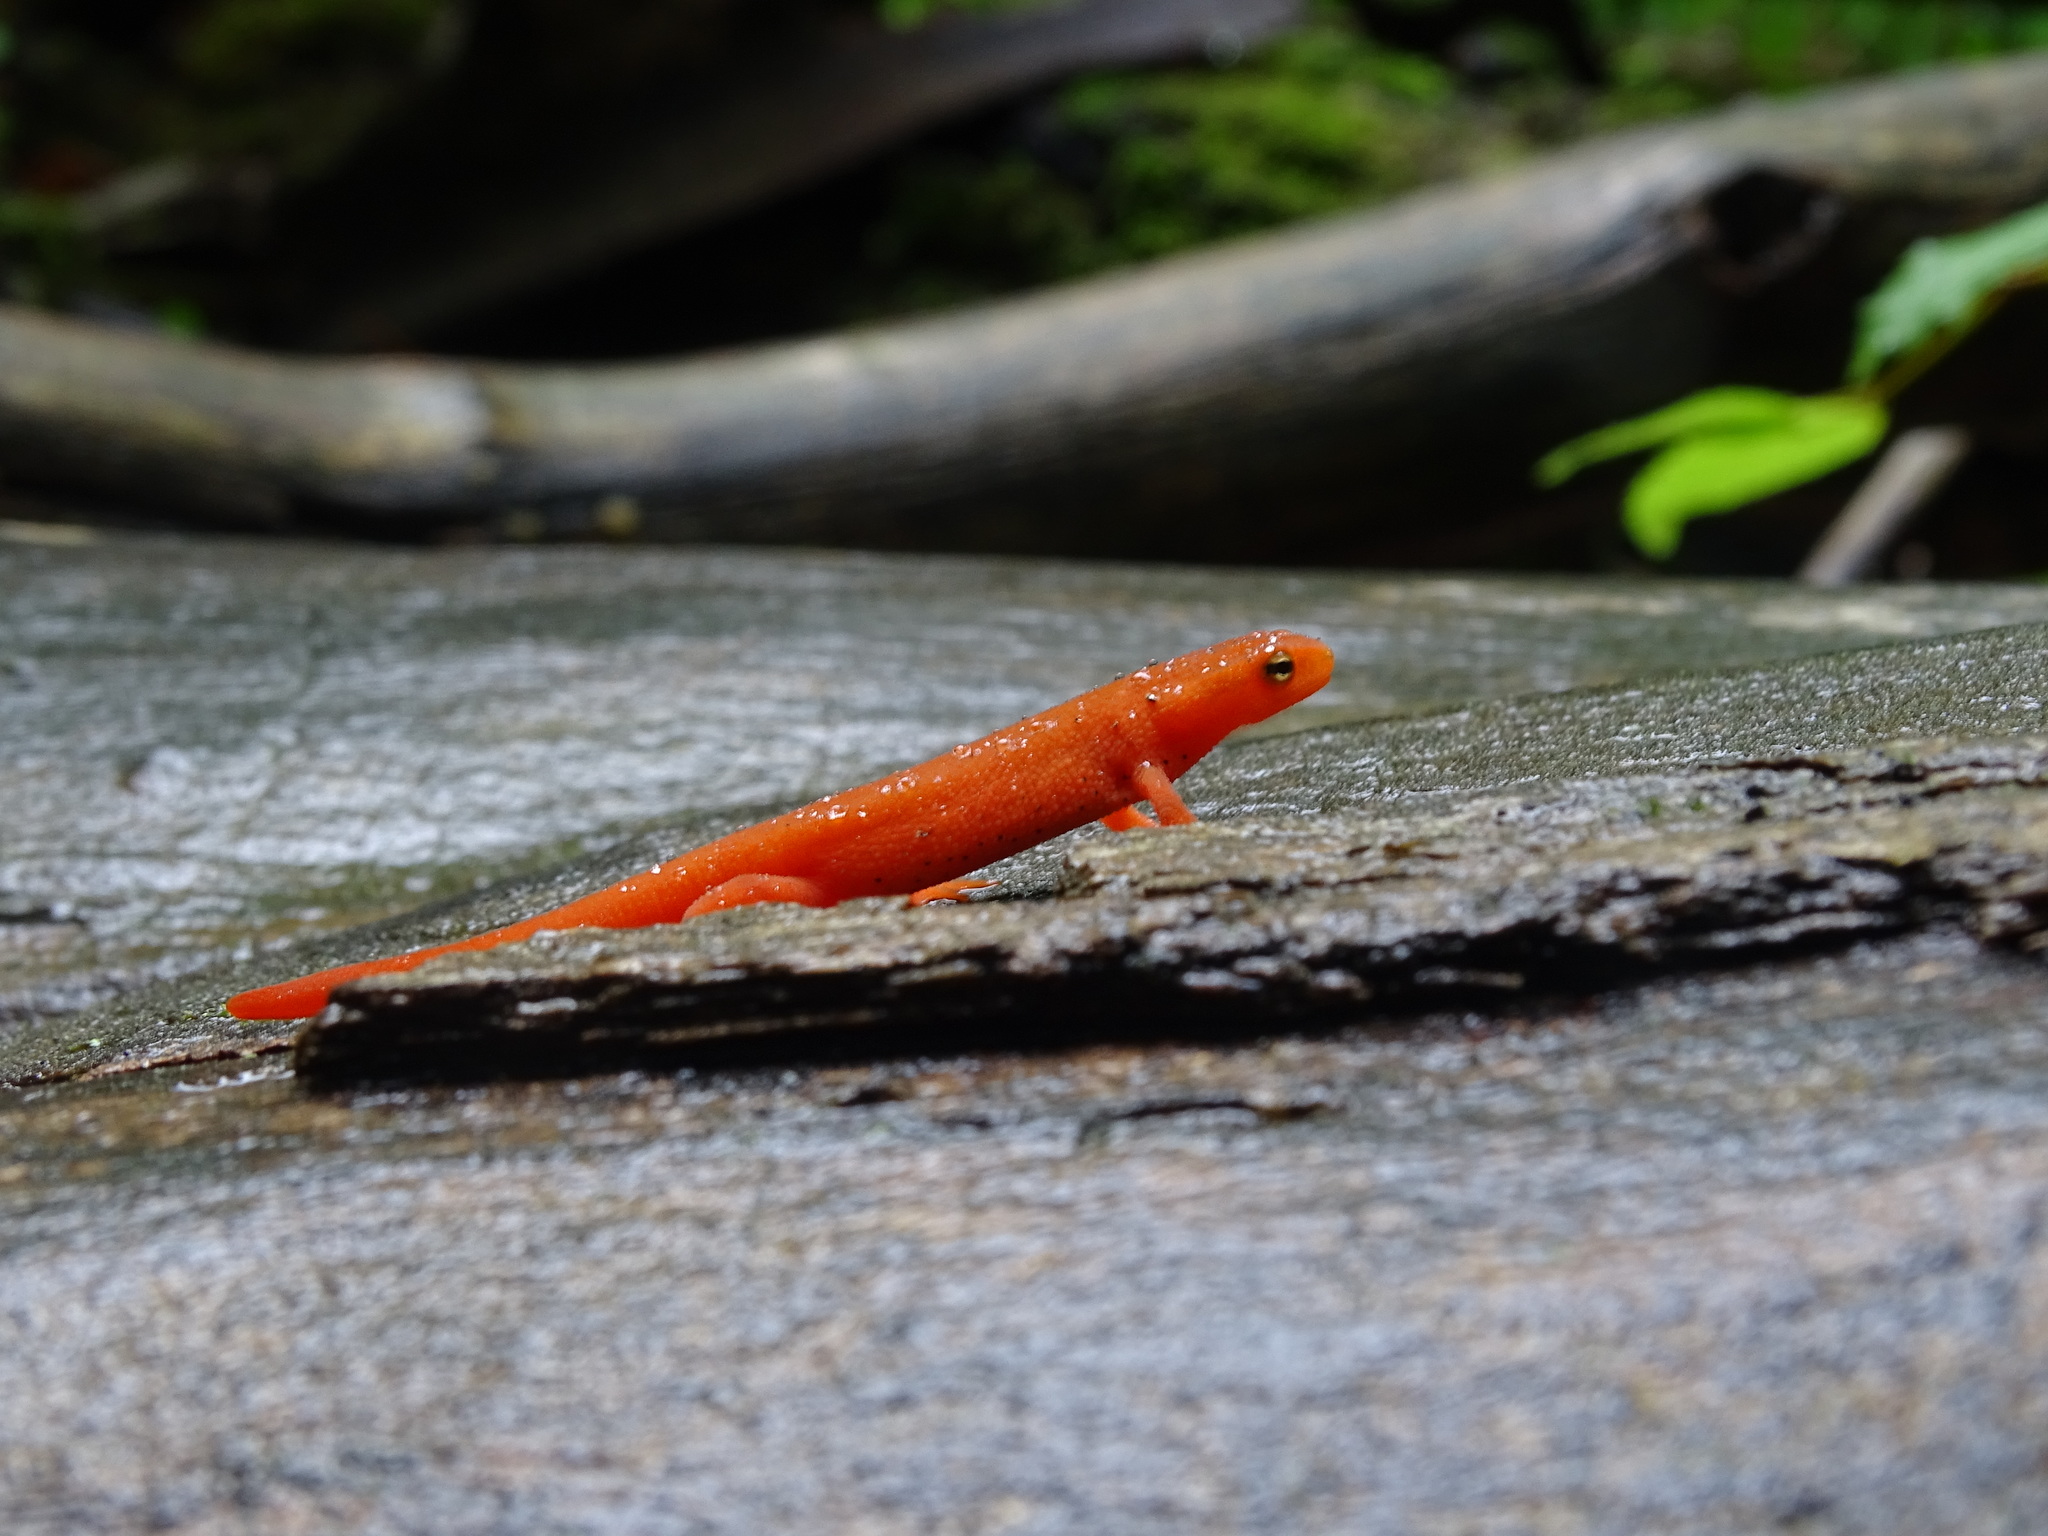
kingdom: Animalia
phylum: Chordata
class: Amphibia
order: Caudata
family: Salamandridae
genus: Notophthalmus
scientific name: Notophthalmus viridescens
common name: Eastern newt
